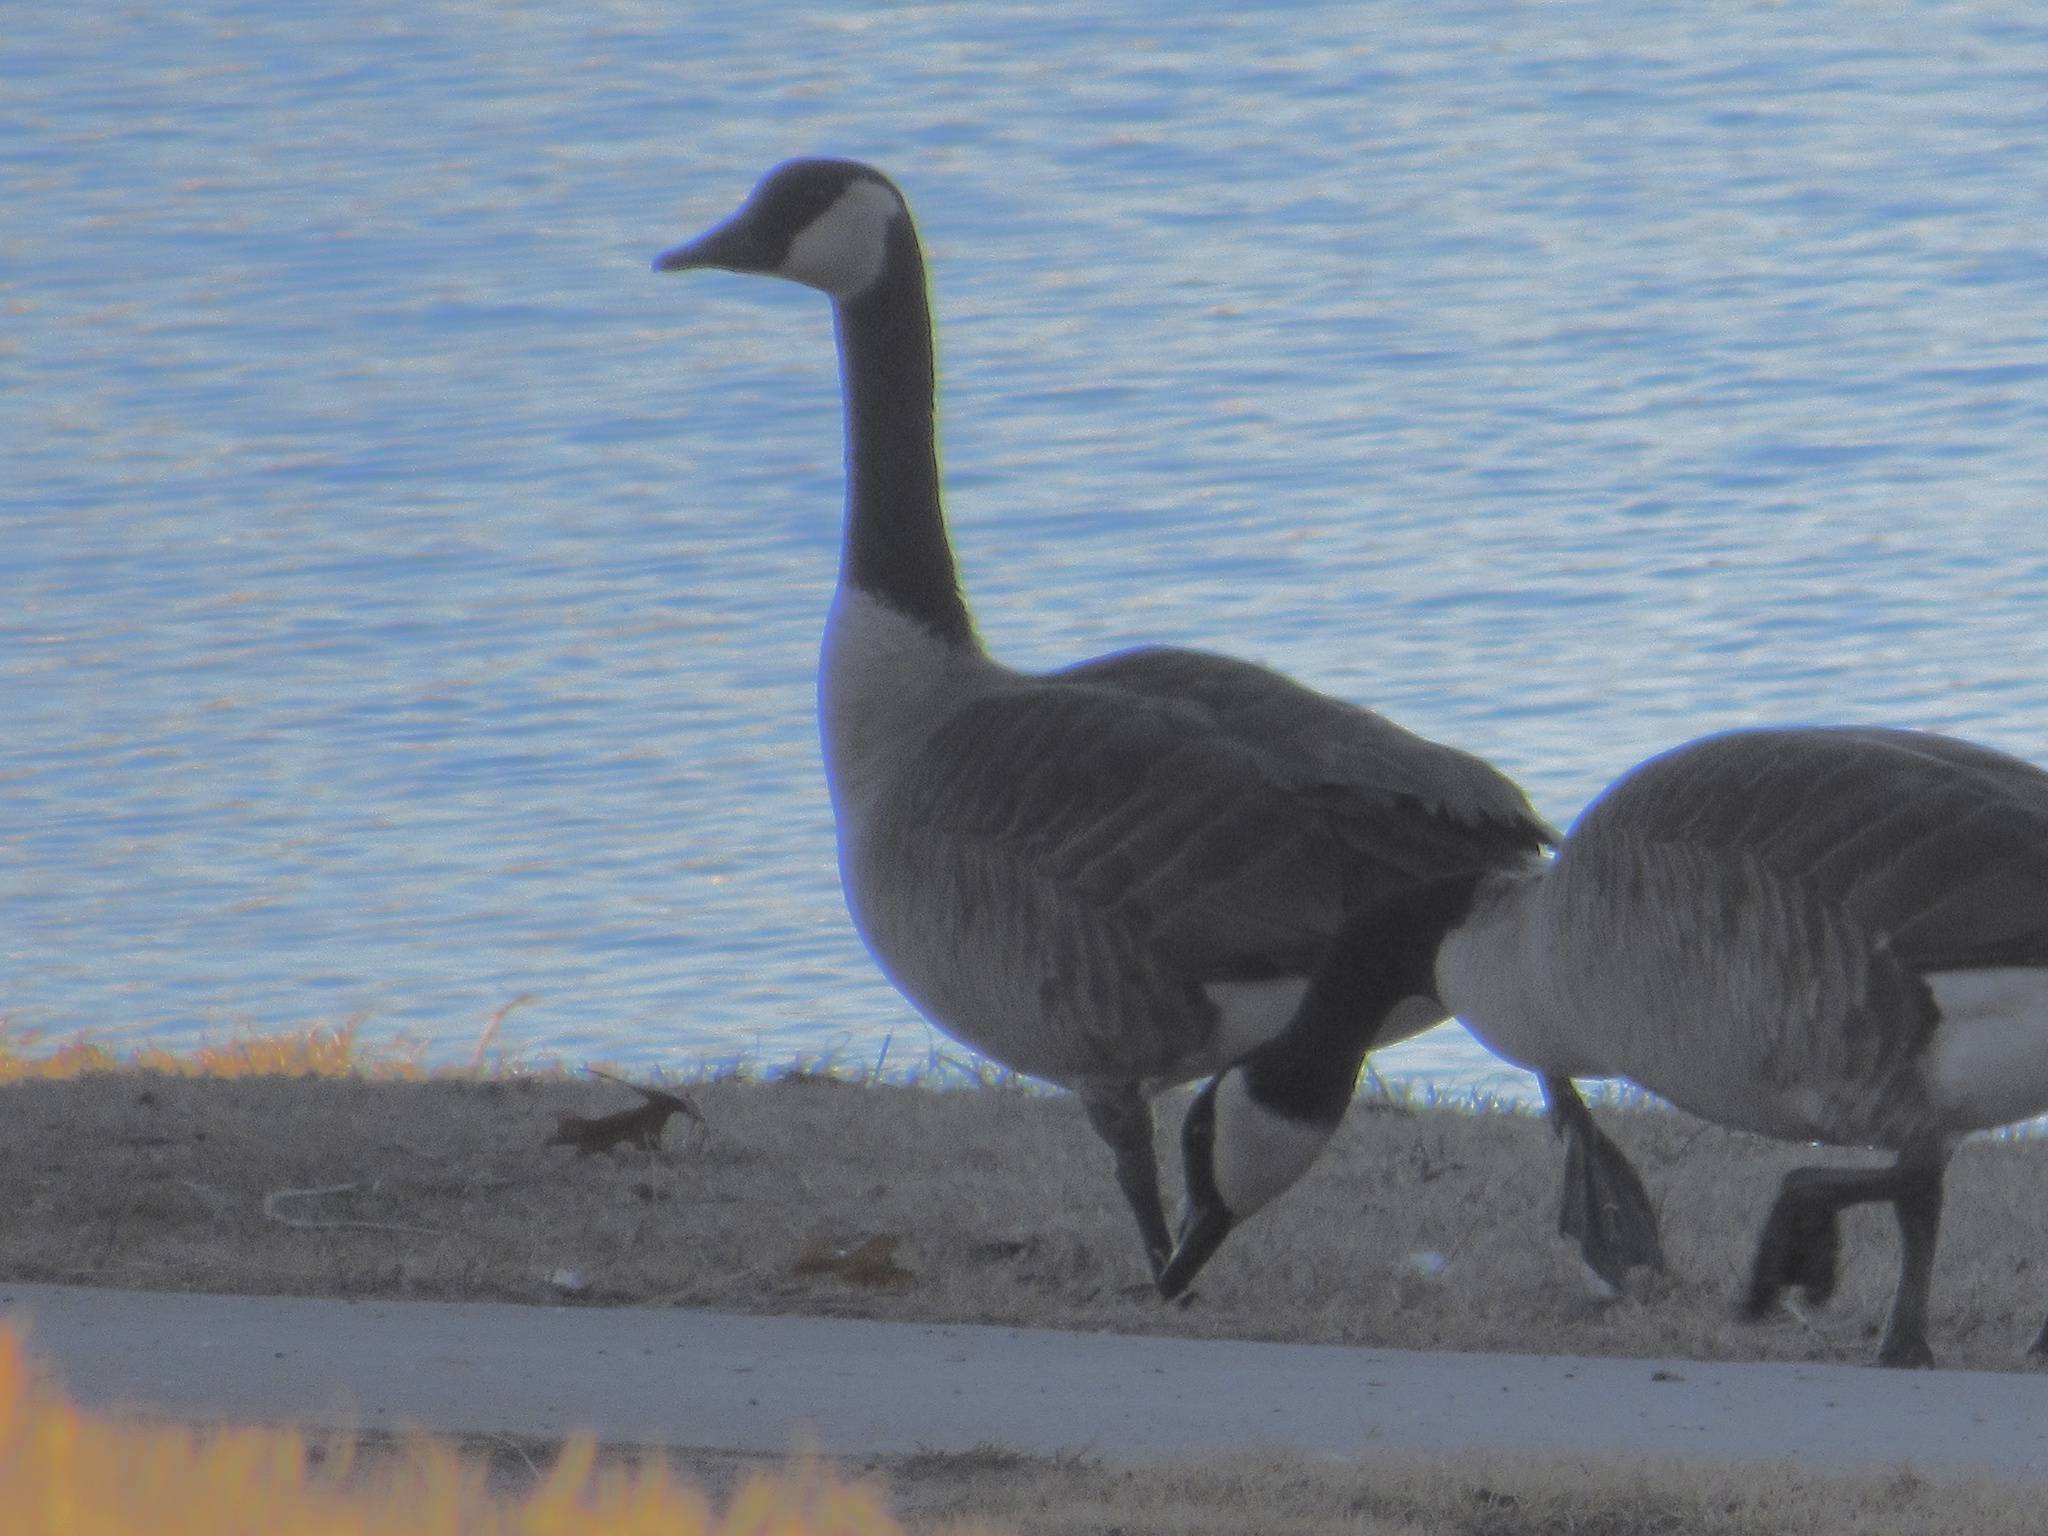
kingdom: Animalia
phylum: Chordata
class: Aves
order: Anseriformes
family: Anatidae
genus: Branta
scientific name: Branta canadensis
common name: Canada goose
